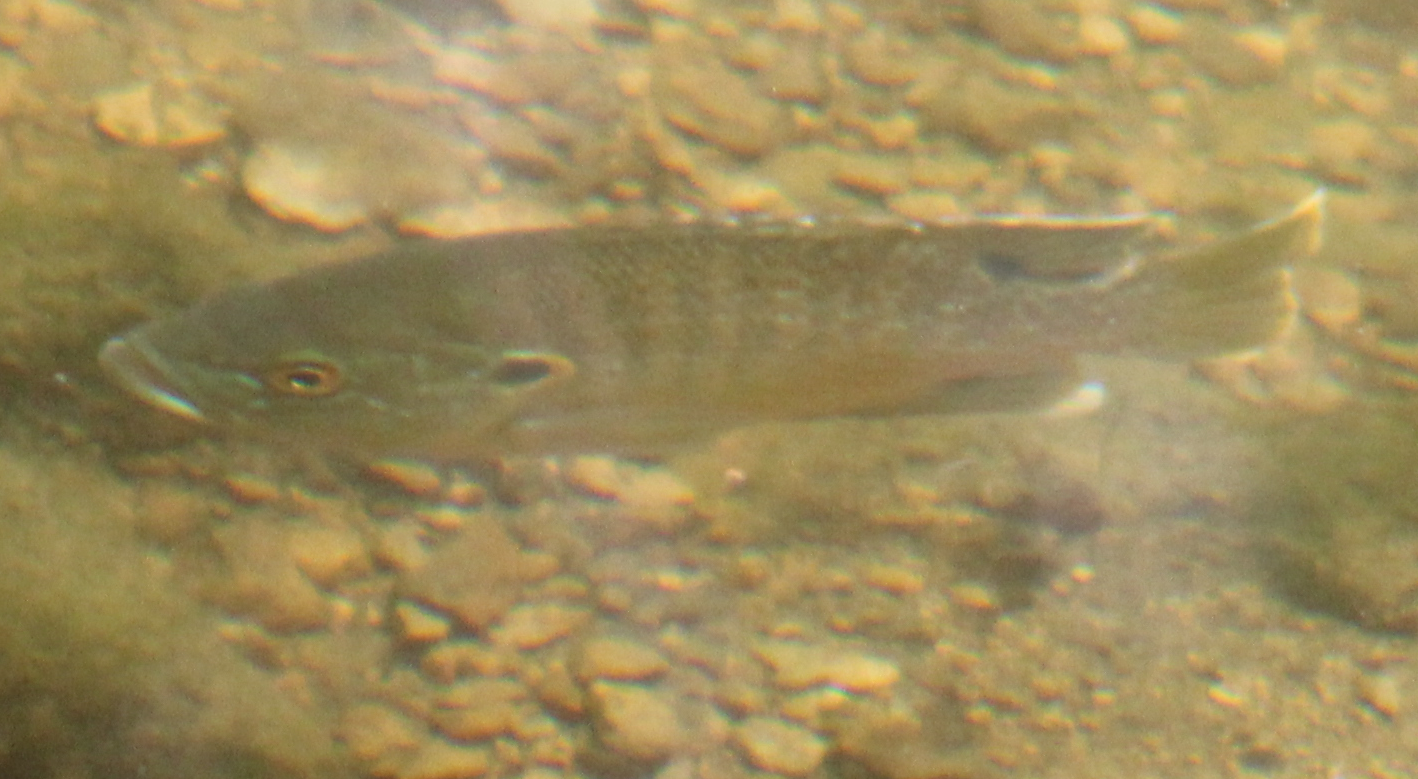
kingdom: Animalia
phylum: Chordata
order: Perciformes
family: Centrarchidae
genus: Lepomis
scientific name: Lepomis cyanellus
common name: Green sunfish
